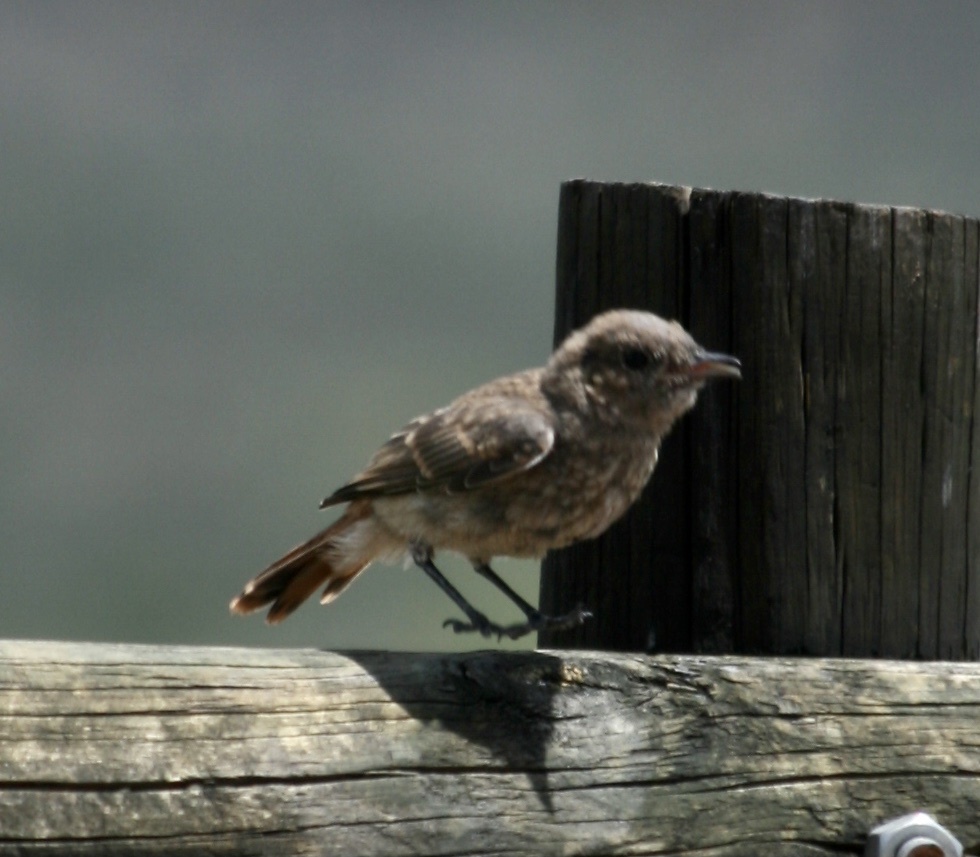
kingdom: Animalia
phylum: Chordata
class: Aves
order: Passeriformes
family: Muscicapidae
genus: Oenanthe
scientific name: Oenanthe familiaris
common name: Familiar chat
